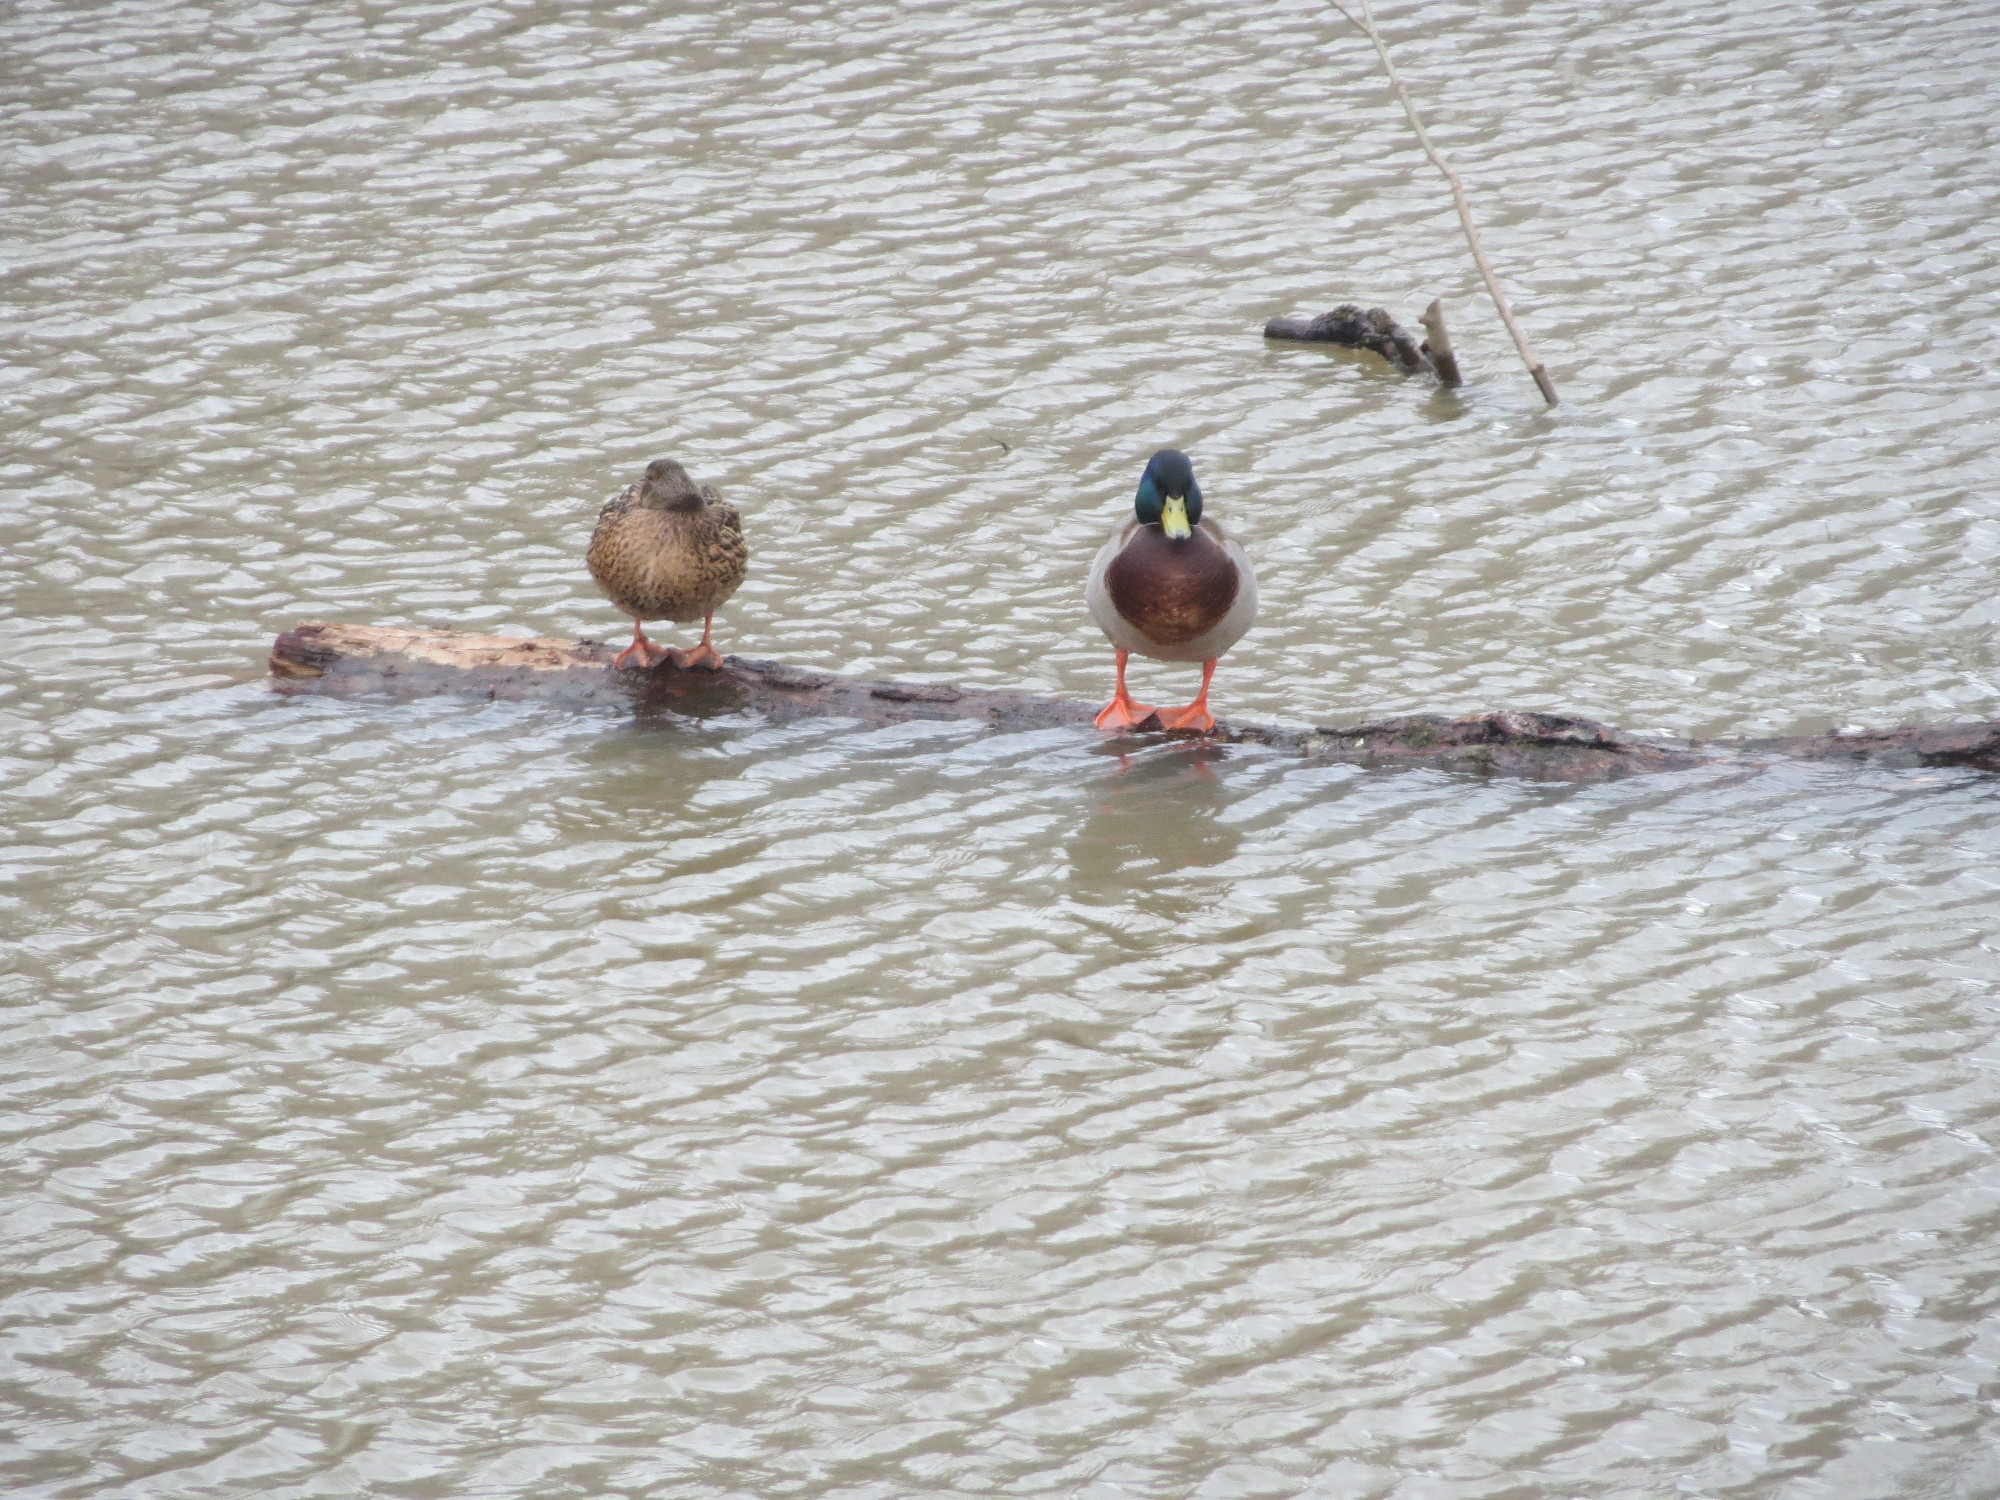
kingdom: Animalia
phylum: Chordata
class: Aves
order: Anseriformes
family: Anatidae
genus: Anas
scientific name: Anas platyrhynchos
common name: Mallard
